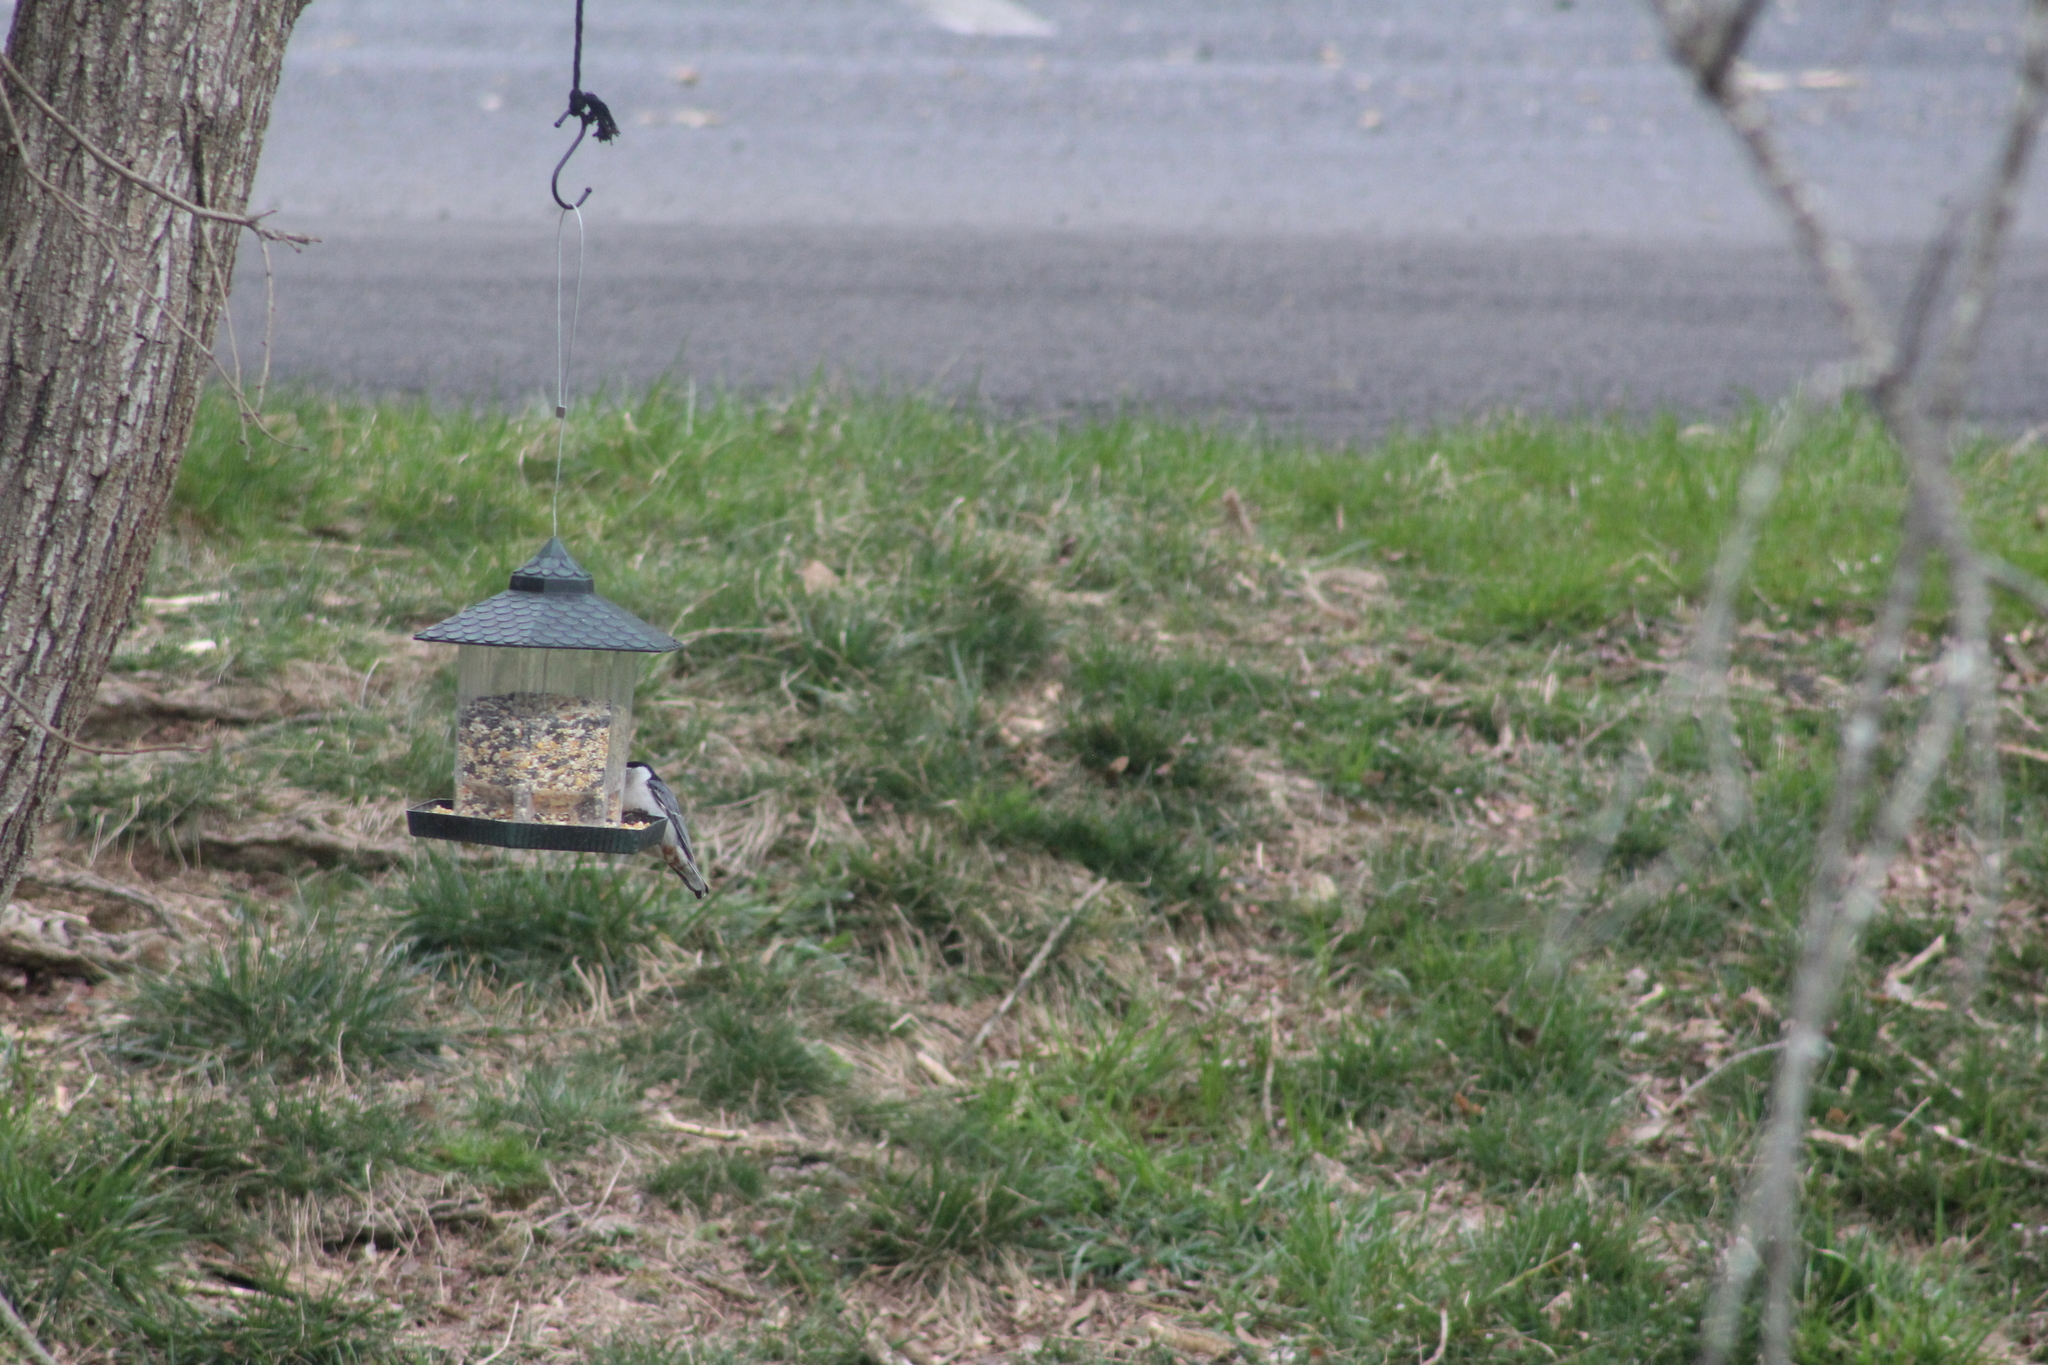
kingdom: Animalia
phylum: Chordata
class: Aves
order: Passeriformes
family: Sittidae
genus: Sitta
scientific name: Sitta carolinensis
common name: White-breasted nuthatch
